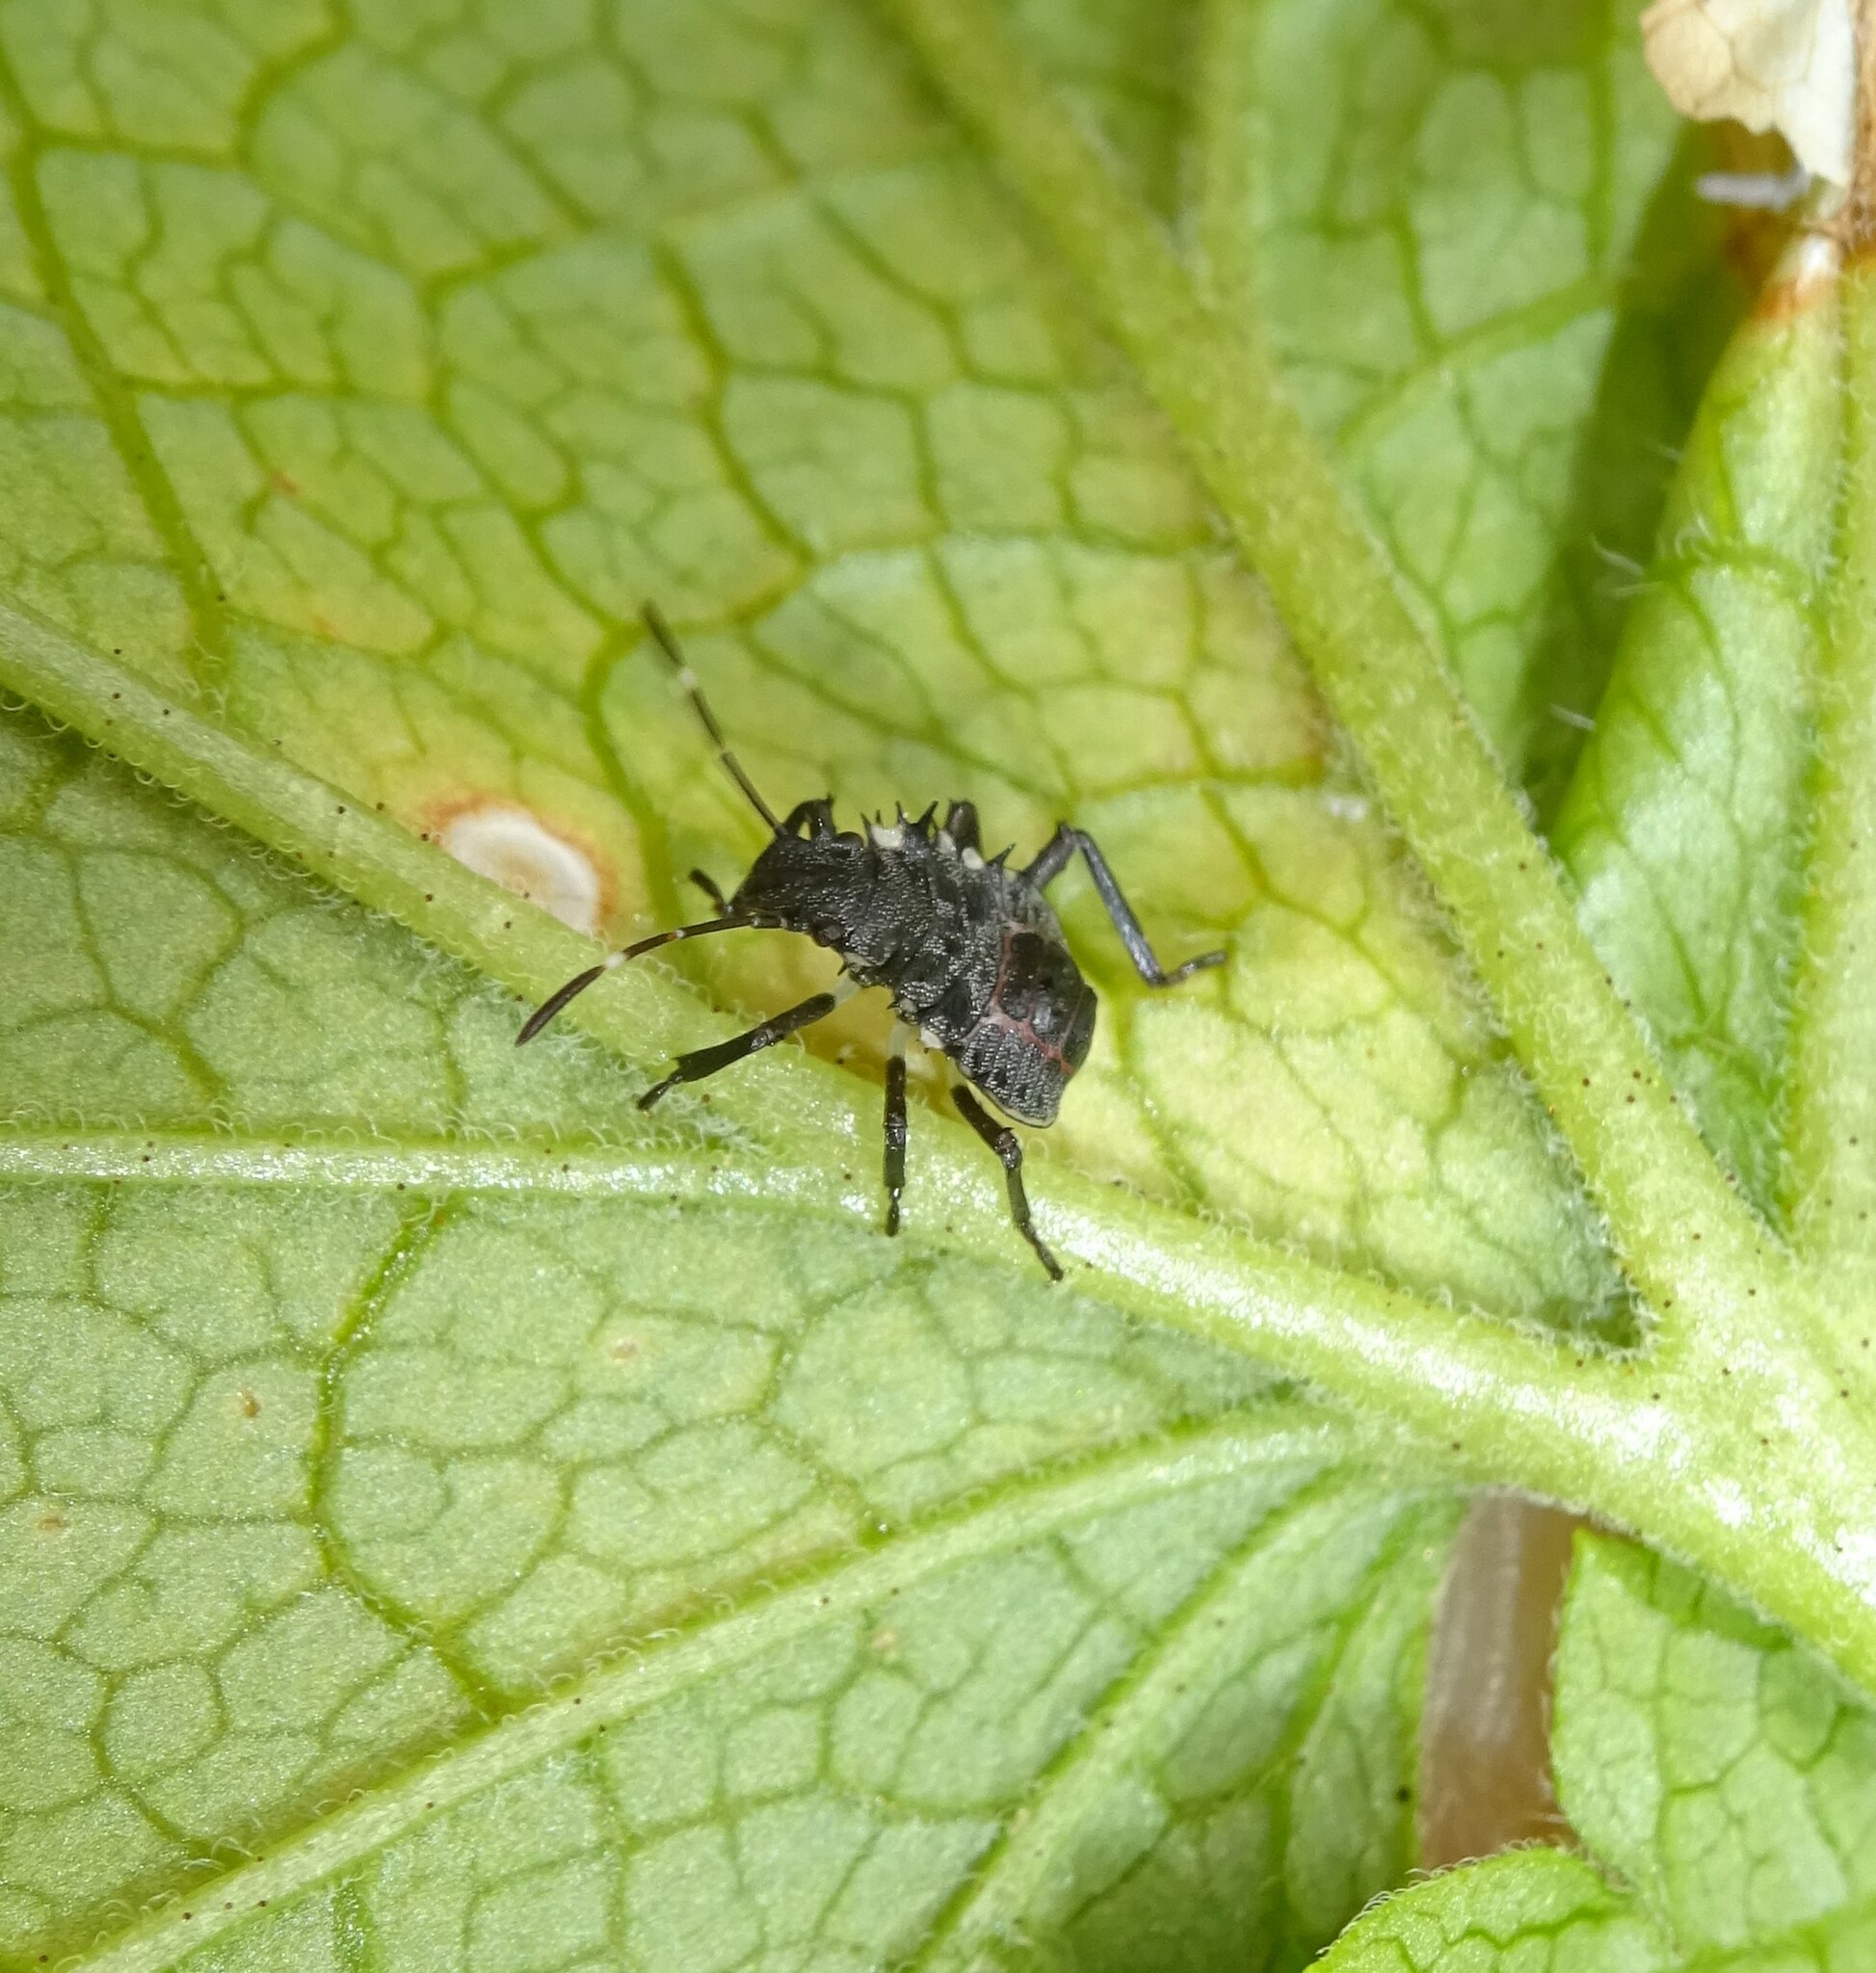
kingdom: Animalia
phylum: Arthropoda
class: Insecta
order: Hemiptera
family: Pentatomidae
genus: Halyomorpha
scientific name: Halyomorpha halys
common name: Brown marmorated stink bug
